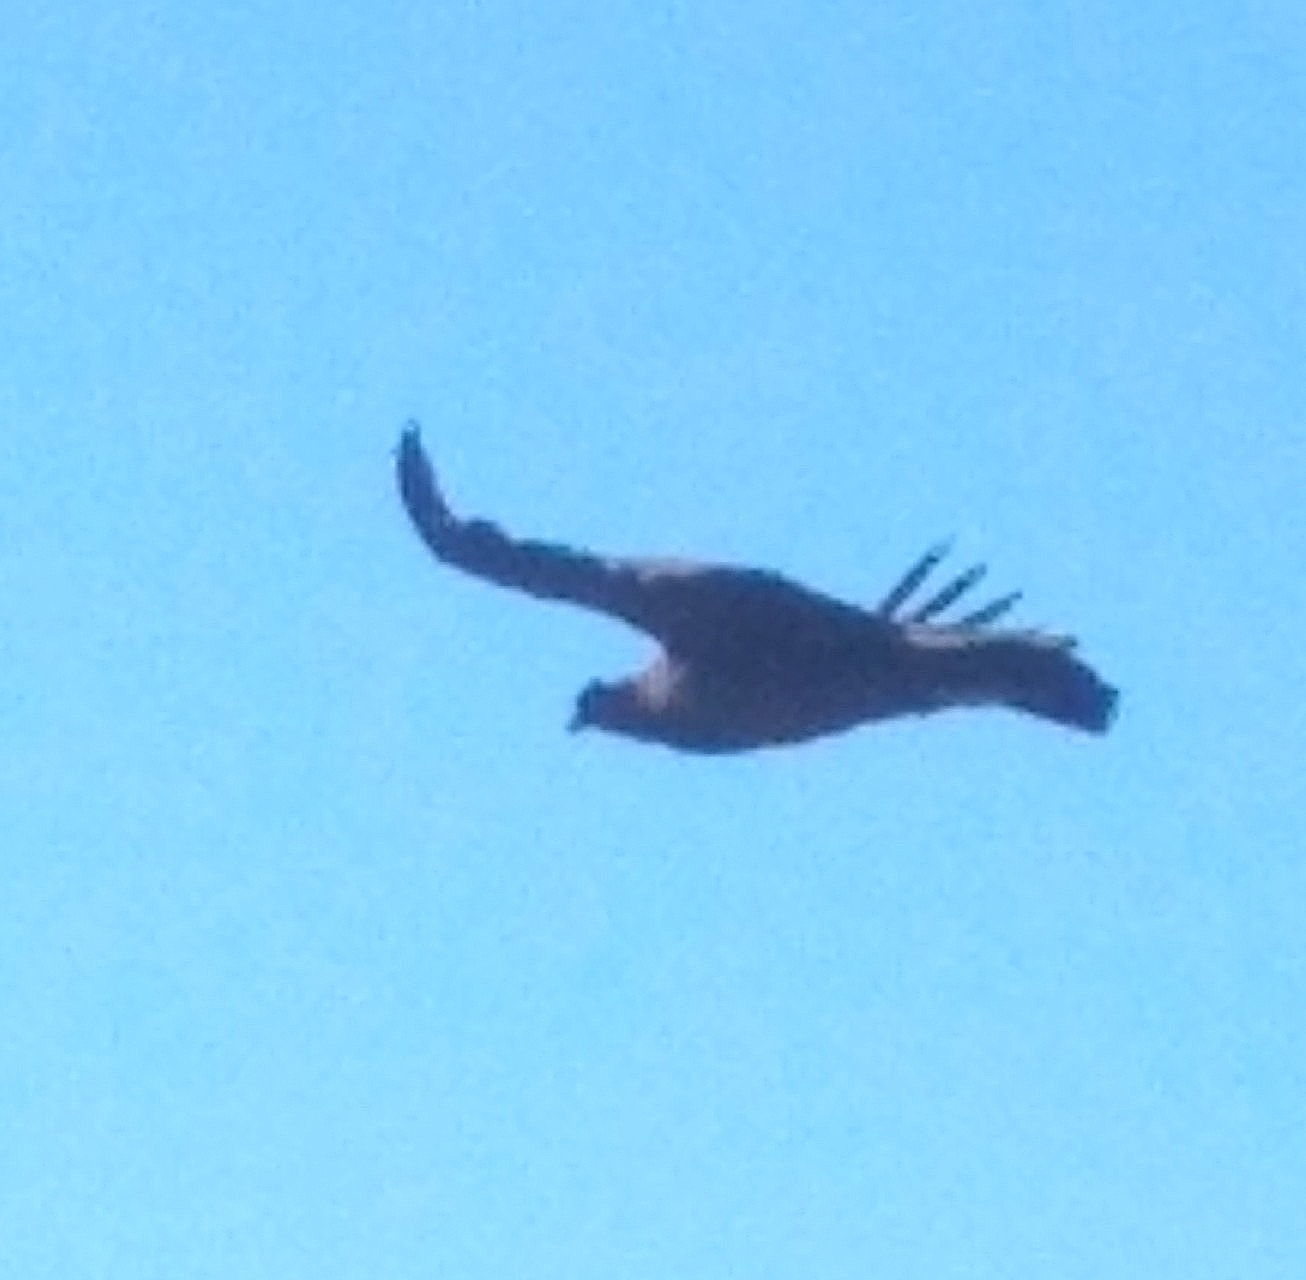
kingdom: Animalia
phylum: Chordata
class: Aves
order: Accipitriformes
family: Cathartidae
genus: Vultur
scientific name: Vultur gryphus
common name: Andean condor
